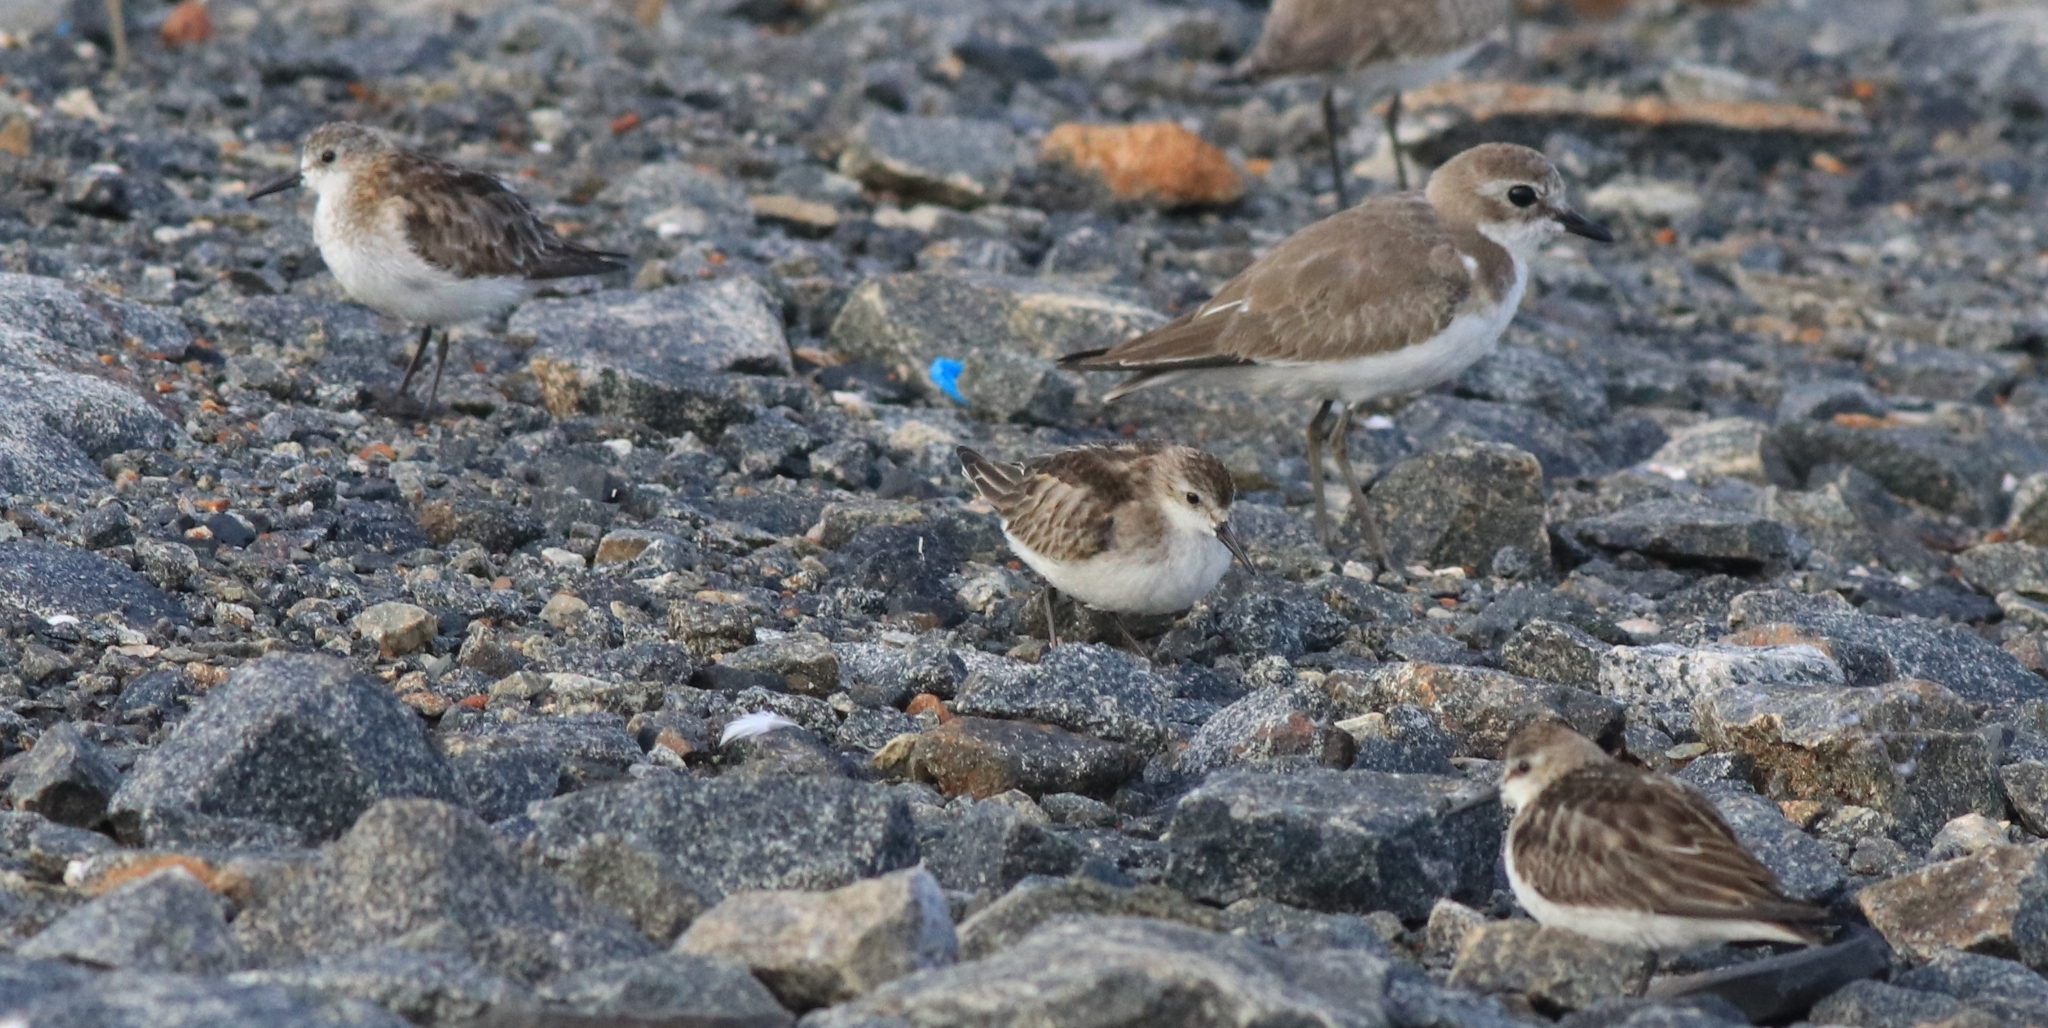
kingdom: Animalia
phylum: Chordata
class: Aves
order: Charadriiformes
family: Scolopacidae
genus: Calidris
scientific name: Calidris minuta
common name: Little stint
